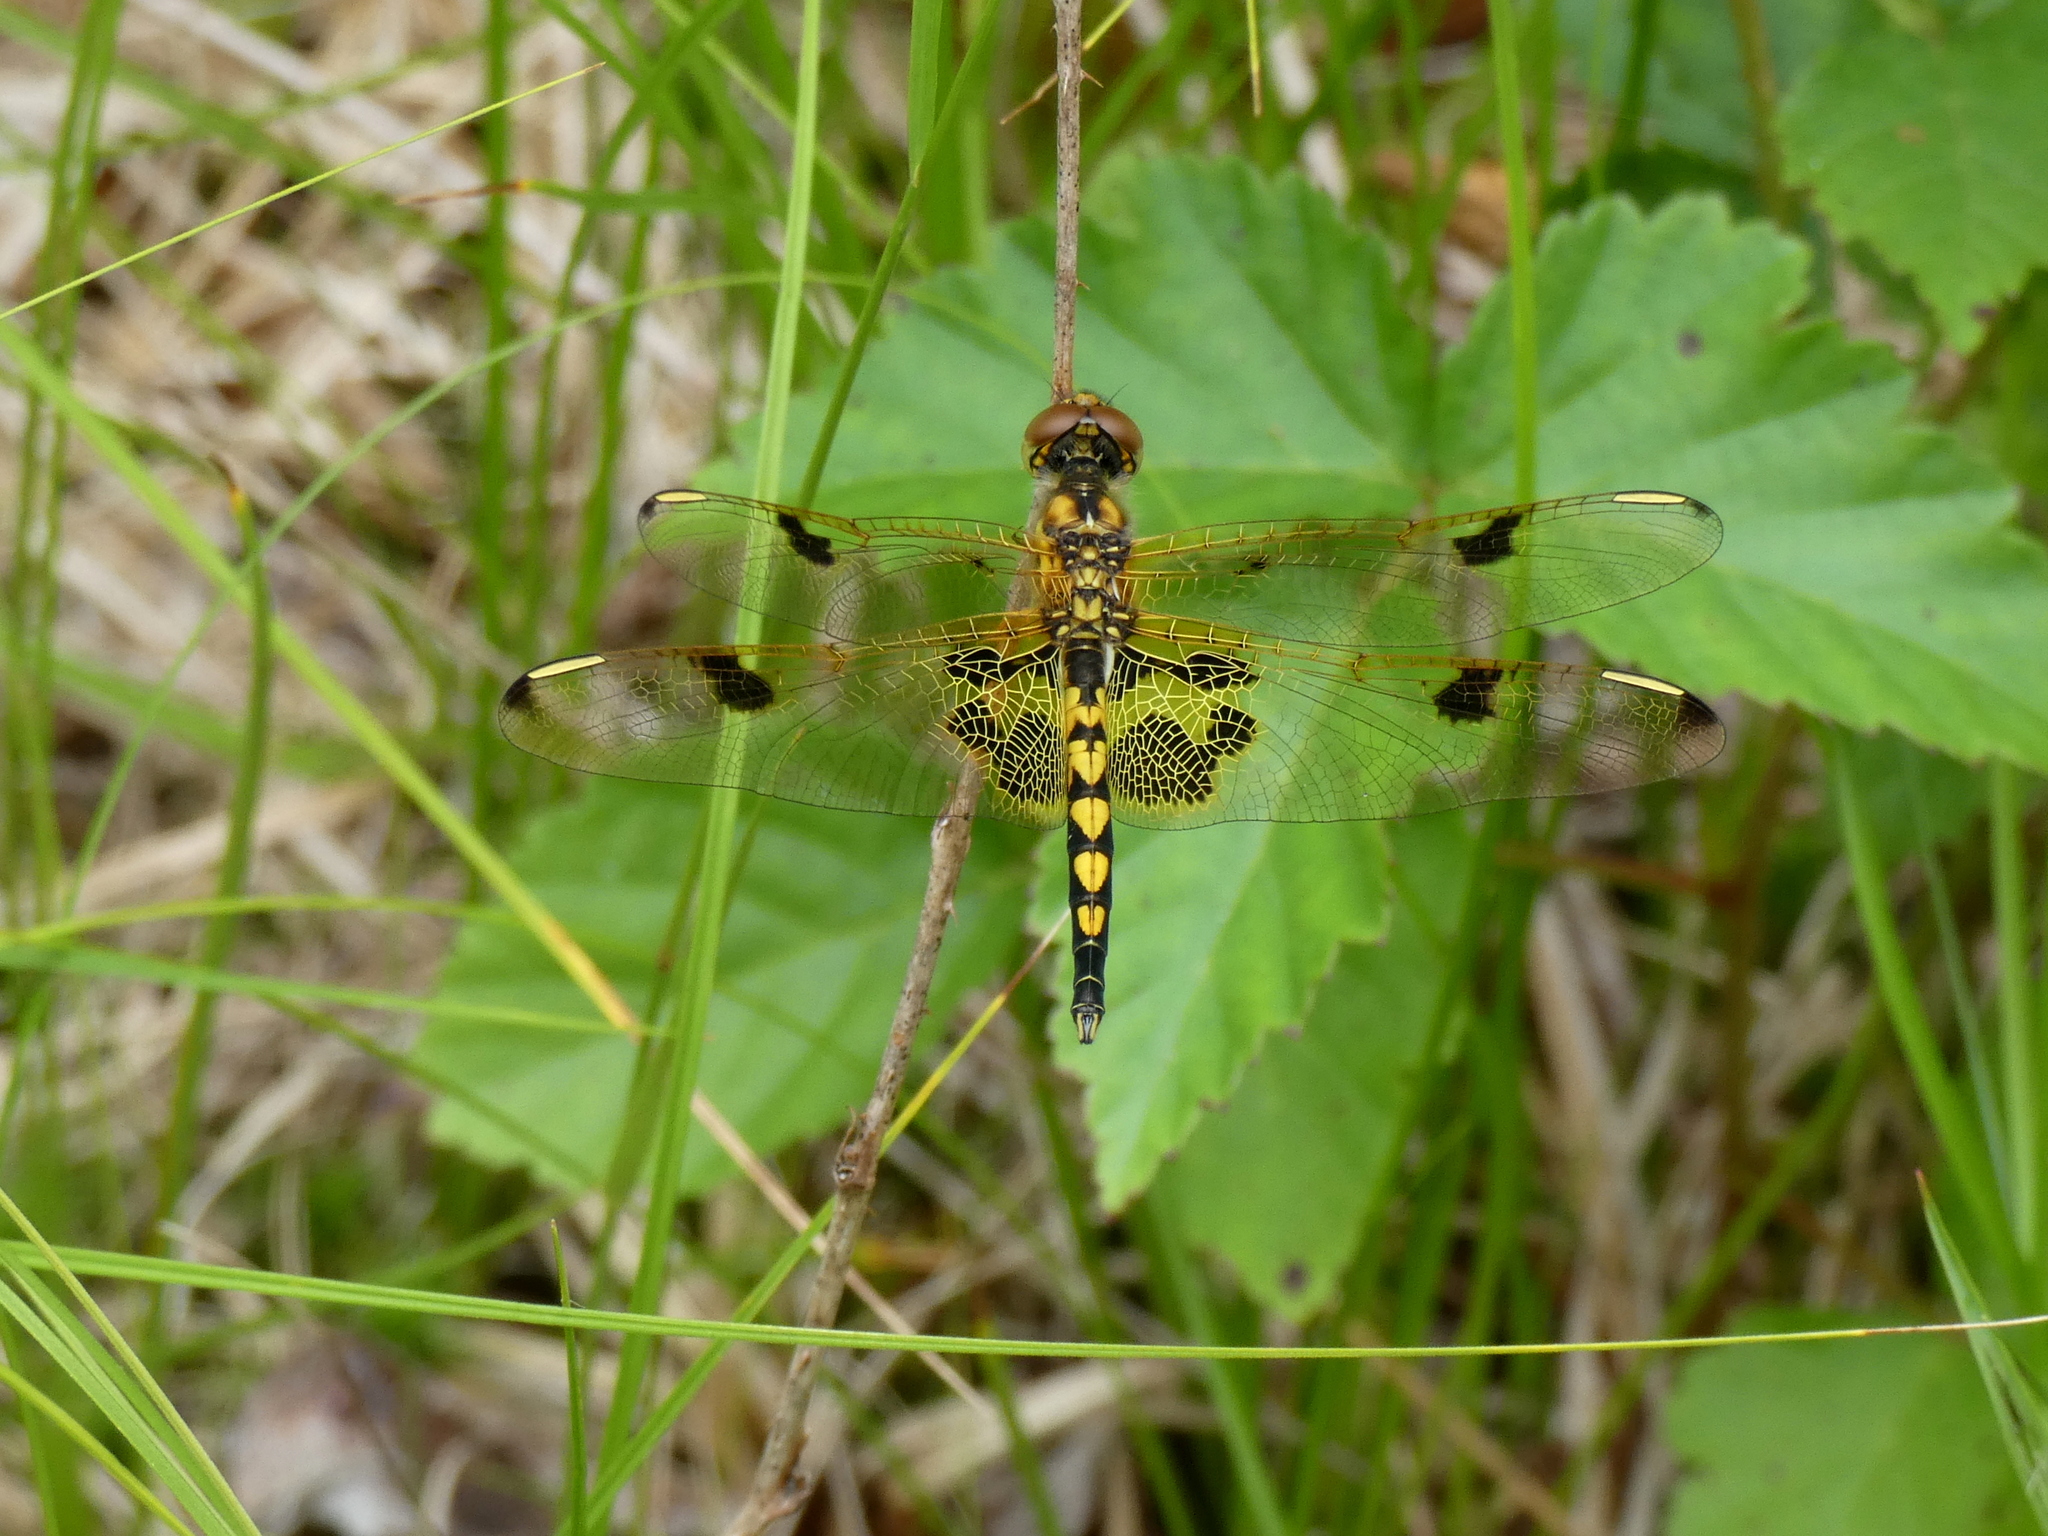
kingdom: Animalia
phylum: Arthropoda
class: Insecta
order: Odonata
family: Libellulidae
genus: Celithemis
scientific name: Celithemis elisa
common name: Calico pennant
